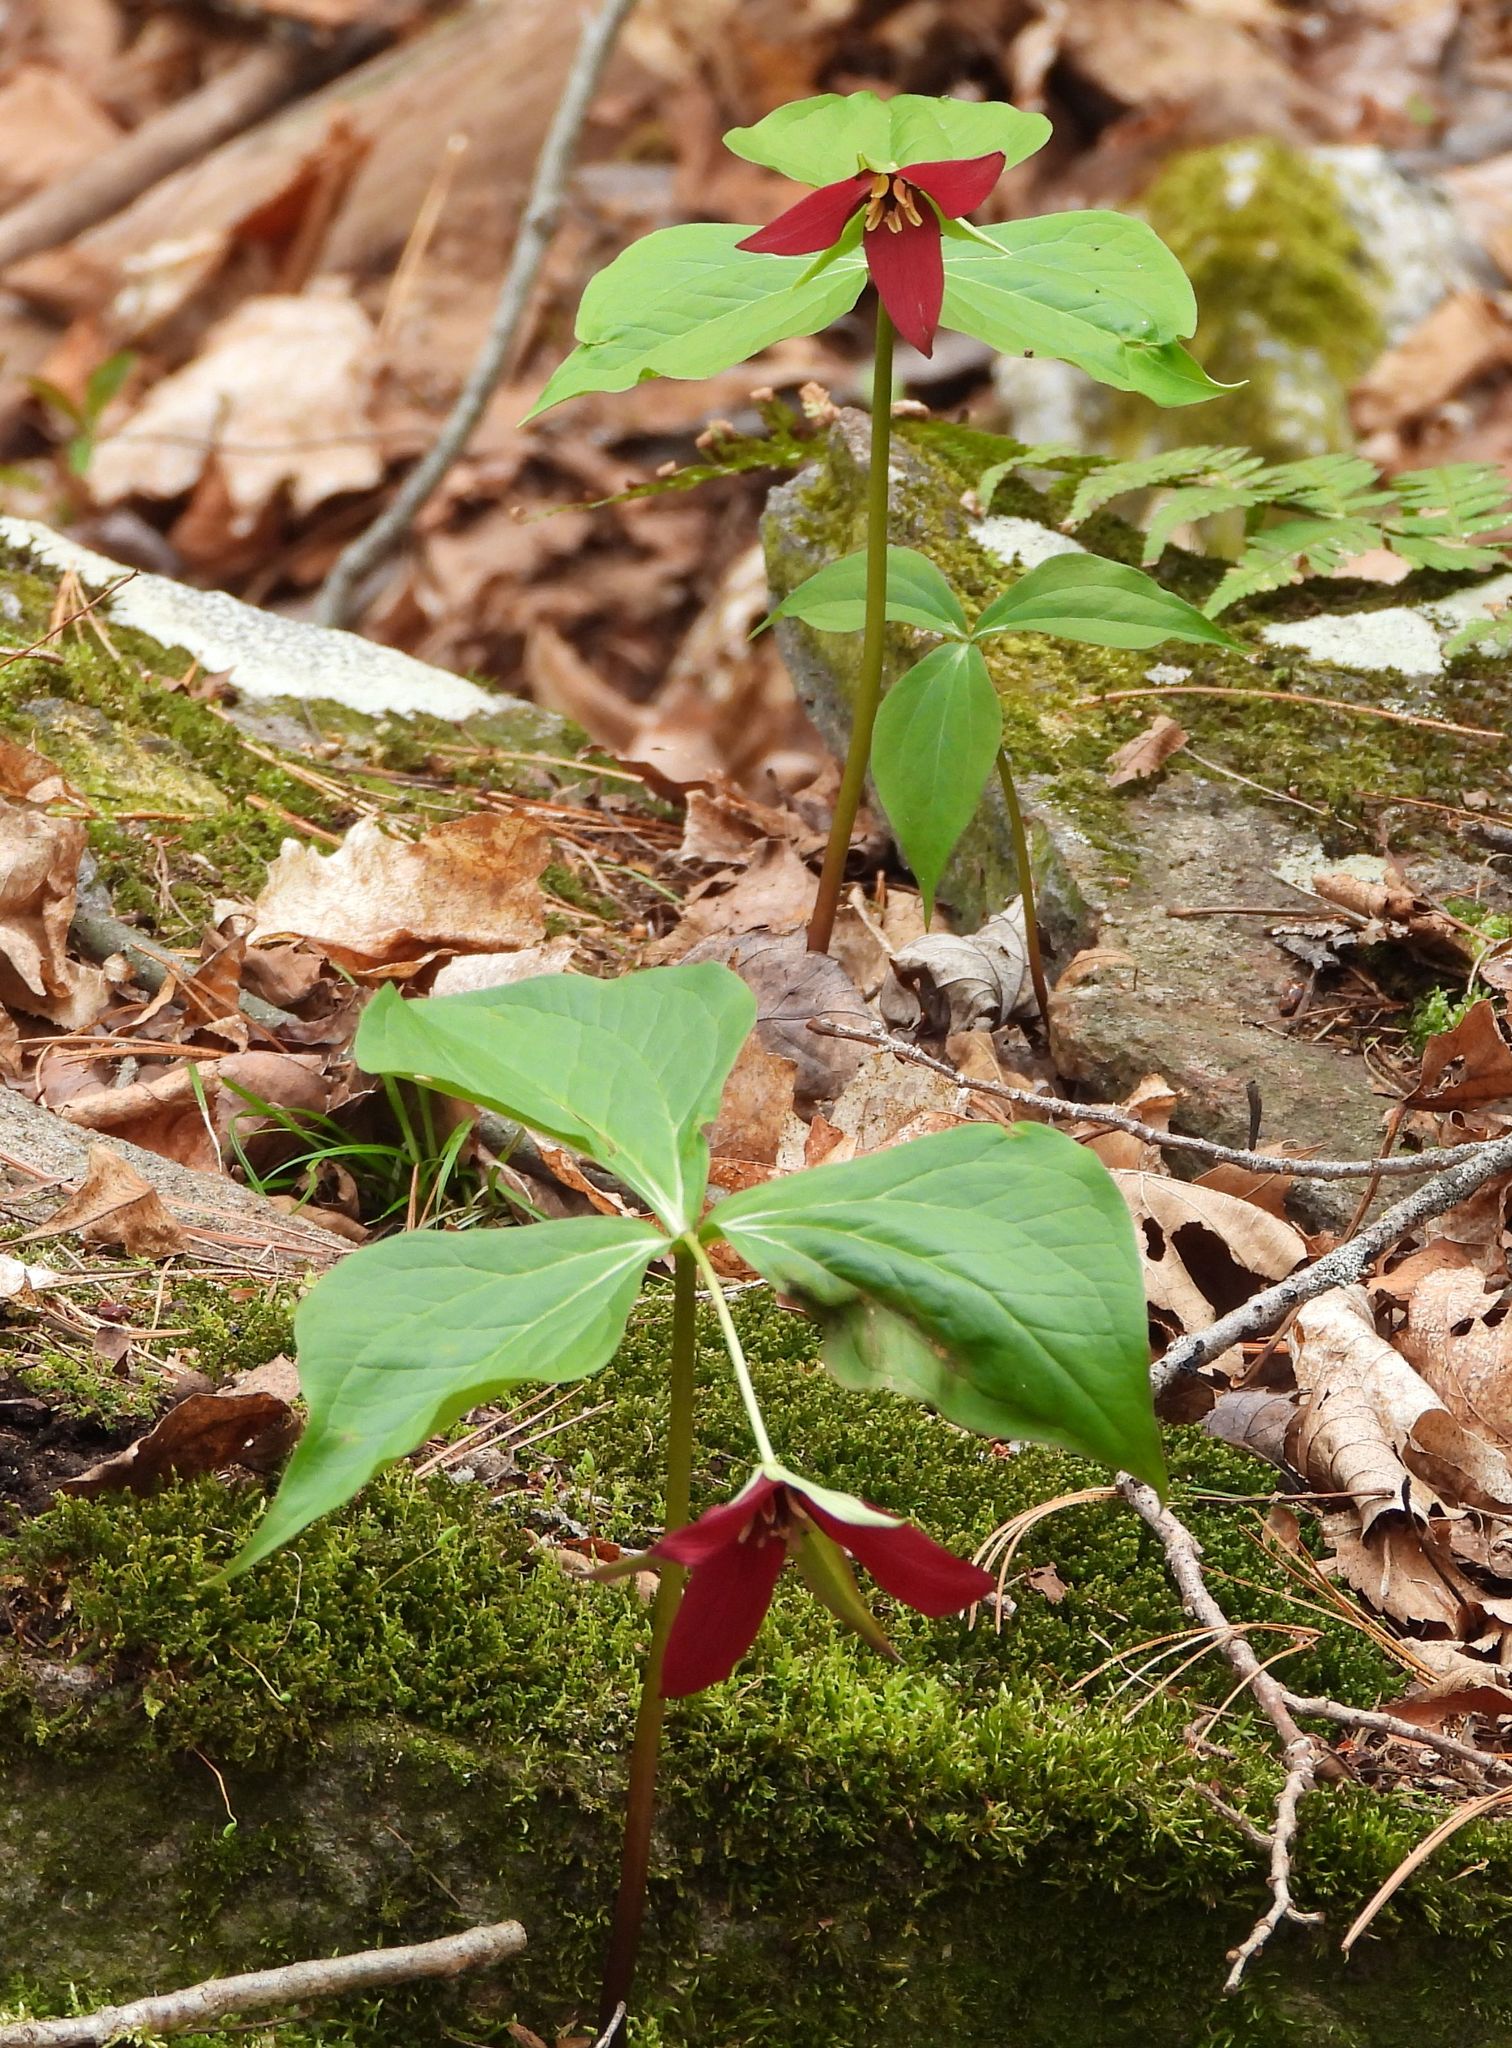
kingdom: Plantae
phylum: Tracheophyta
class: Liliopsida
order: Liliales
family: Melanthiaceae
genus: Trillium
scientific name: Trillium erectum
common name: Purple trillium
